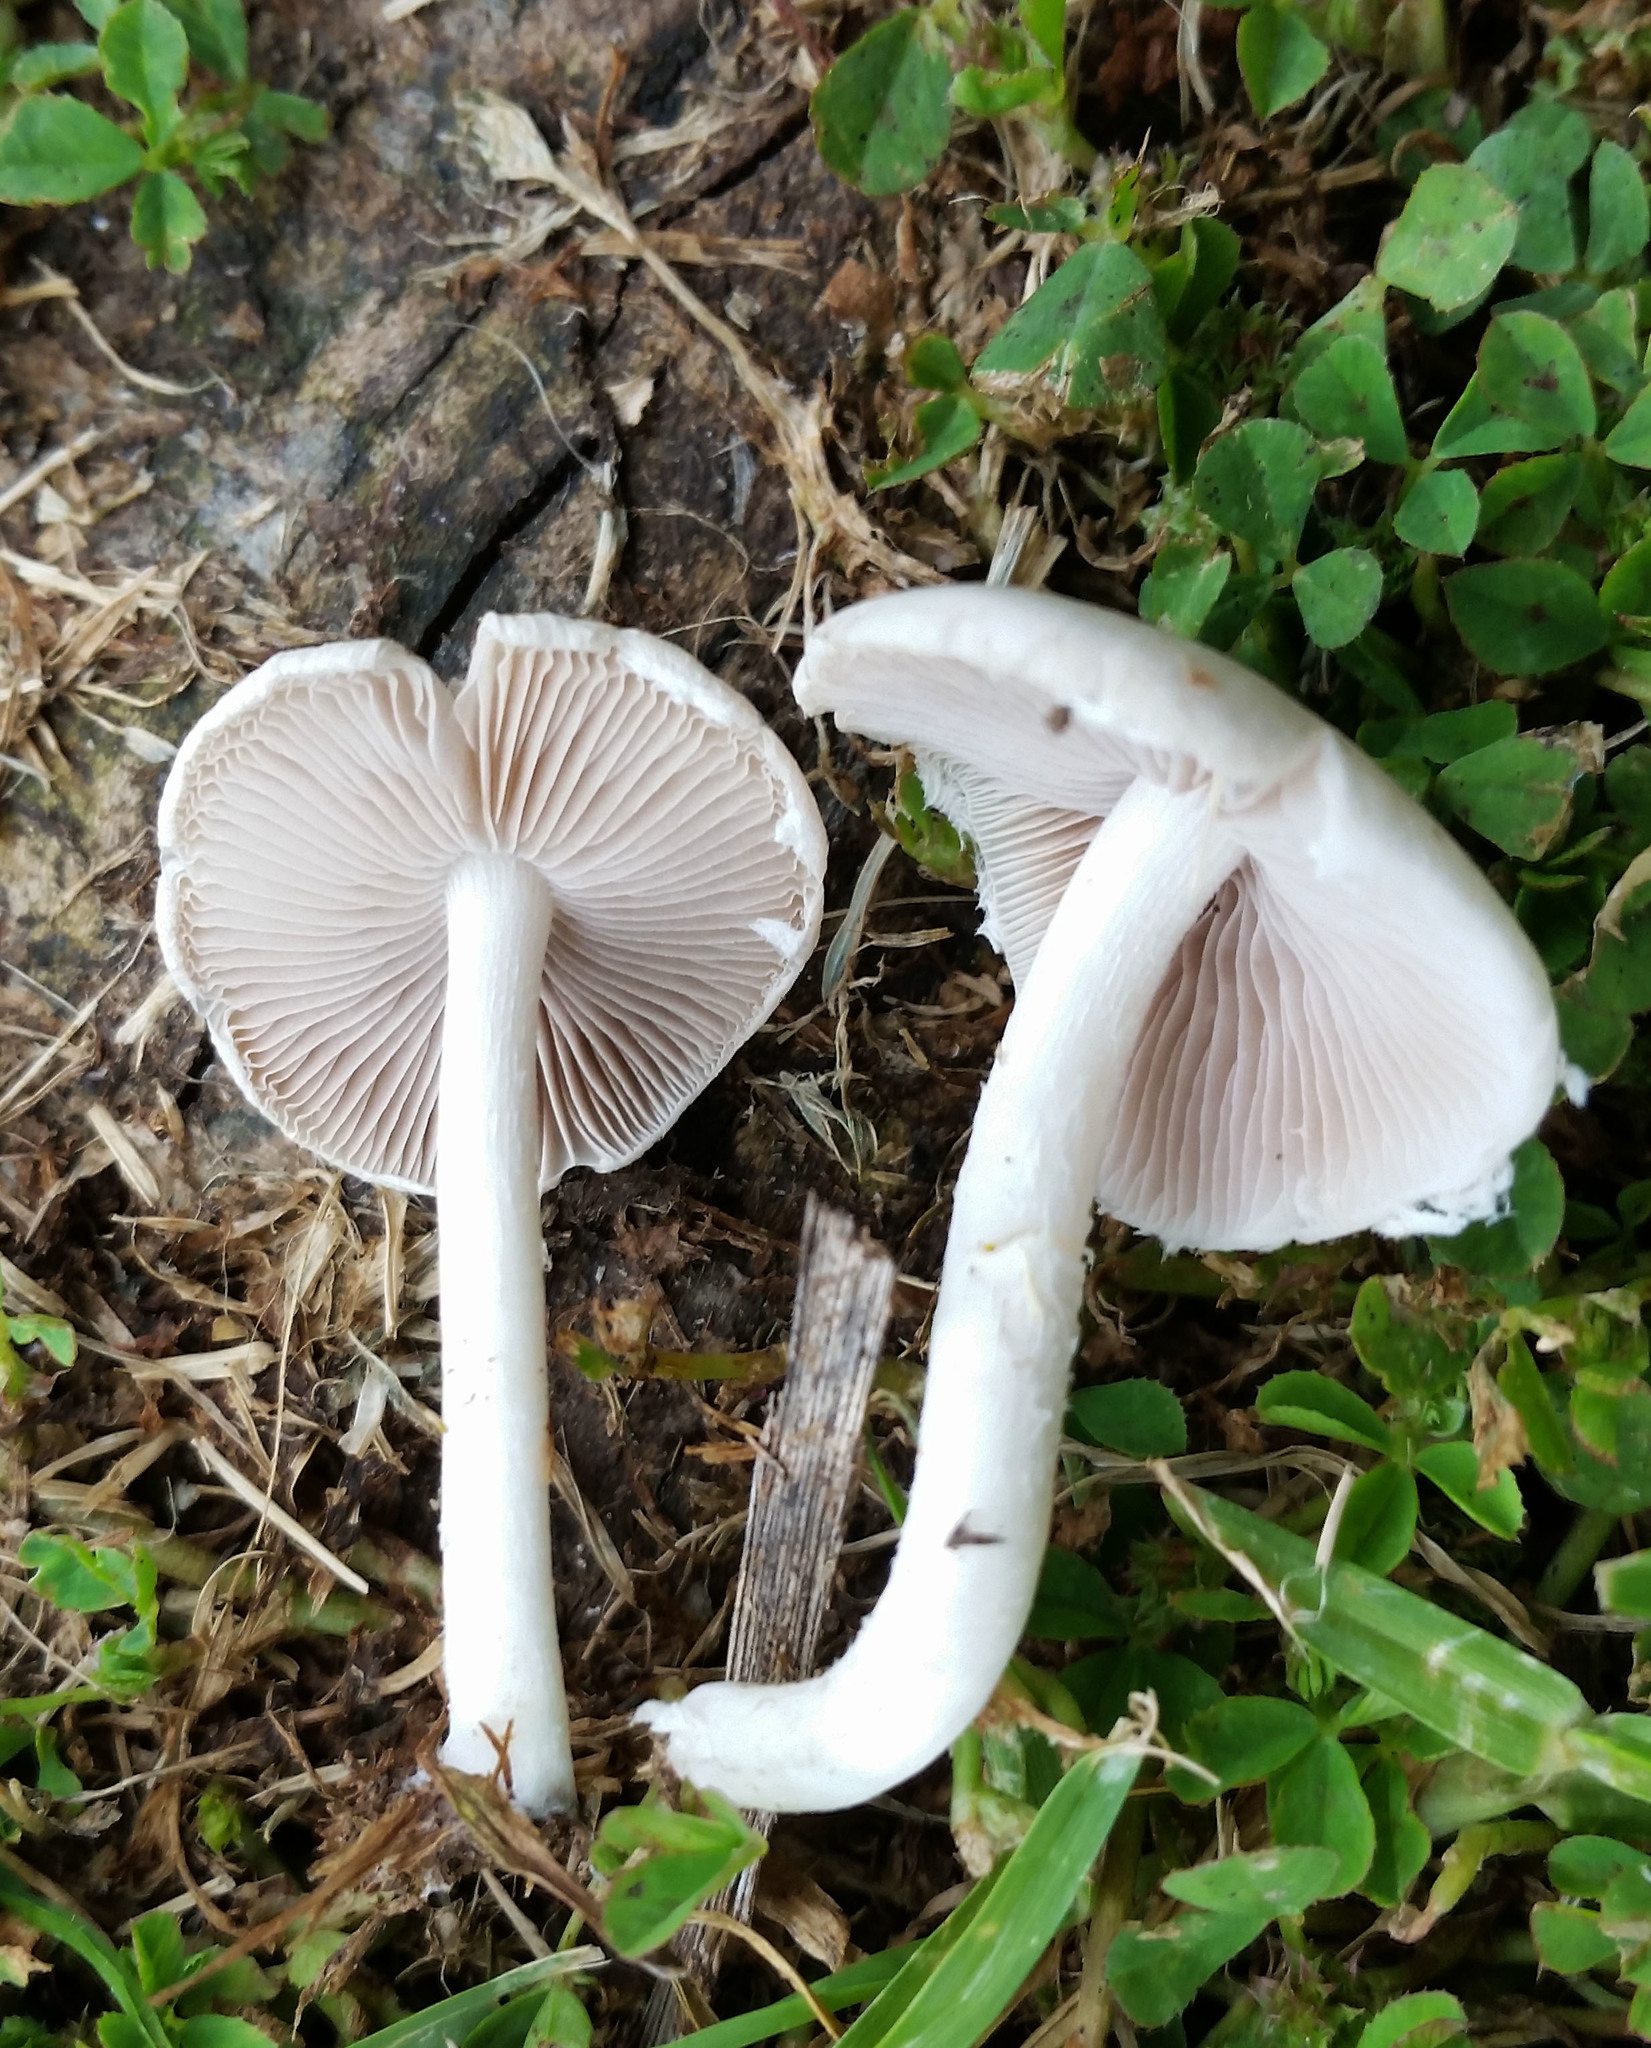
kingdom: Fungi
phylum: Basidiomycota
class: Agaricomycetes
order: Agaricales
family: Psathyrellaceae
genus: Candolleomyces
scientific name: Candolleomyces candolleanus
